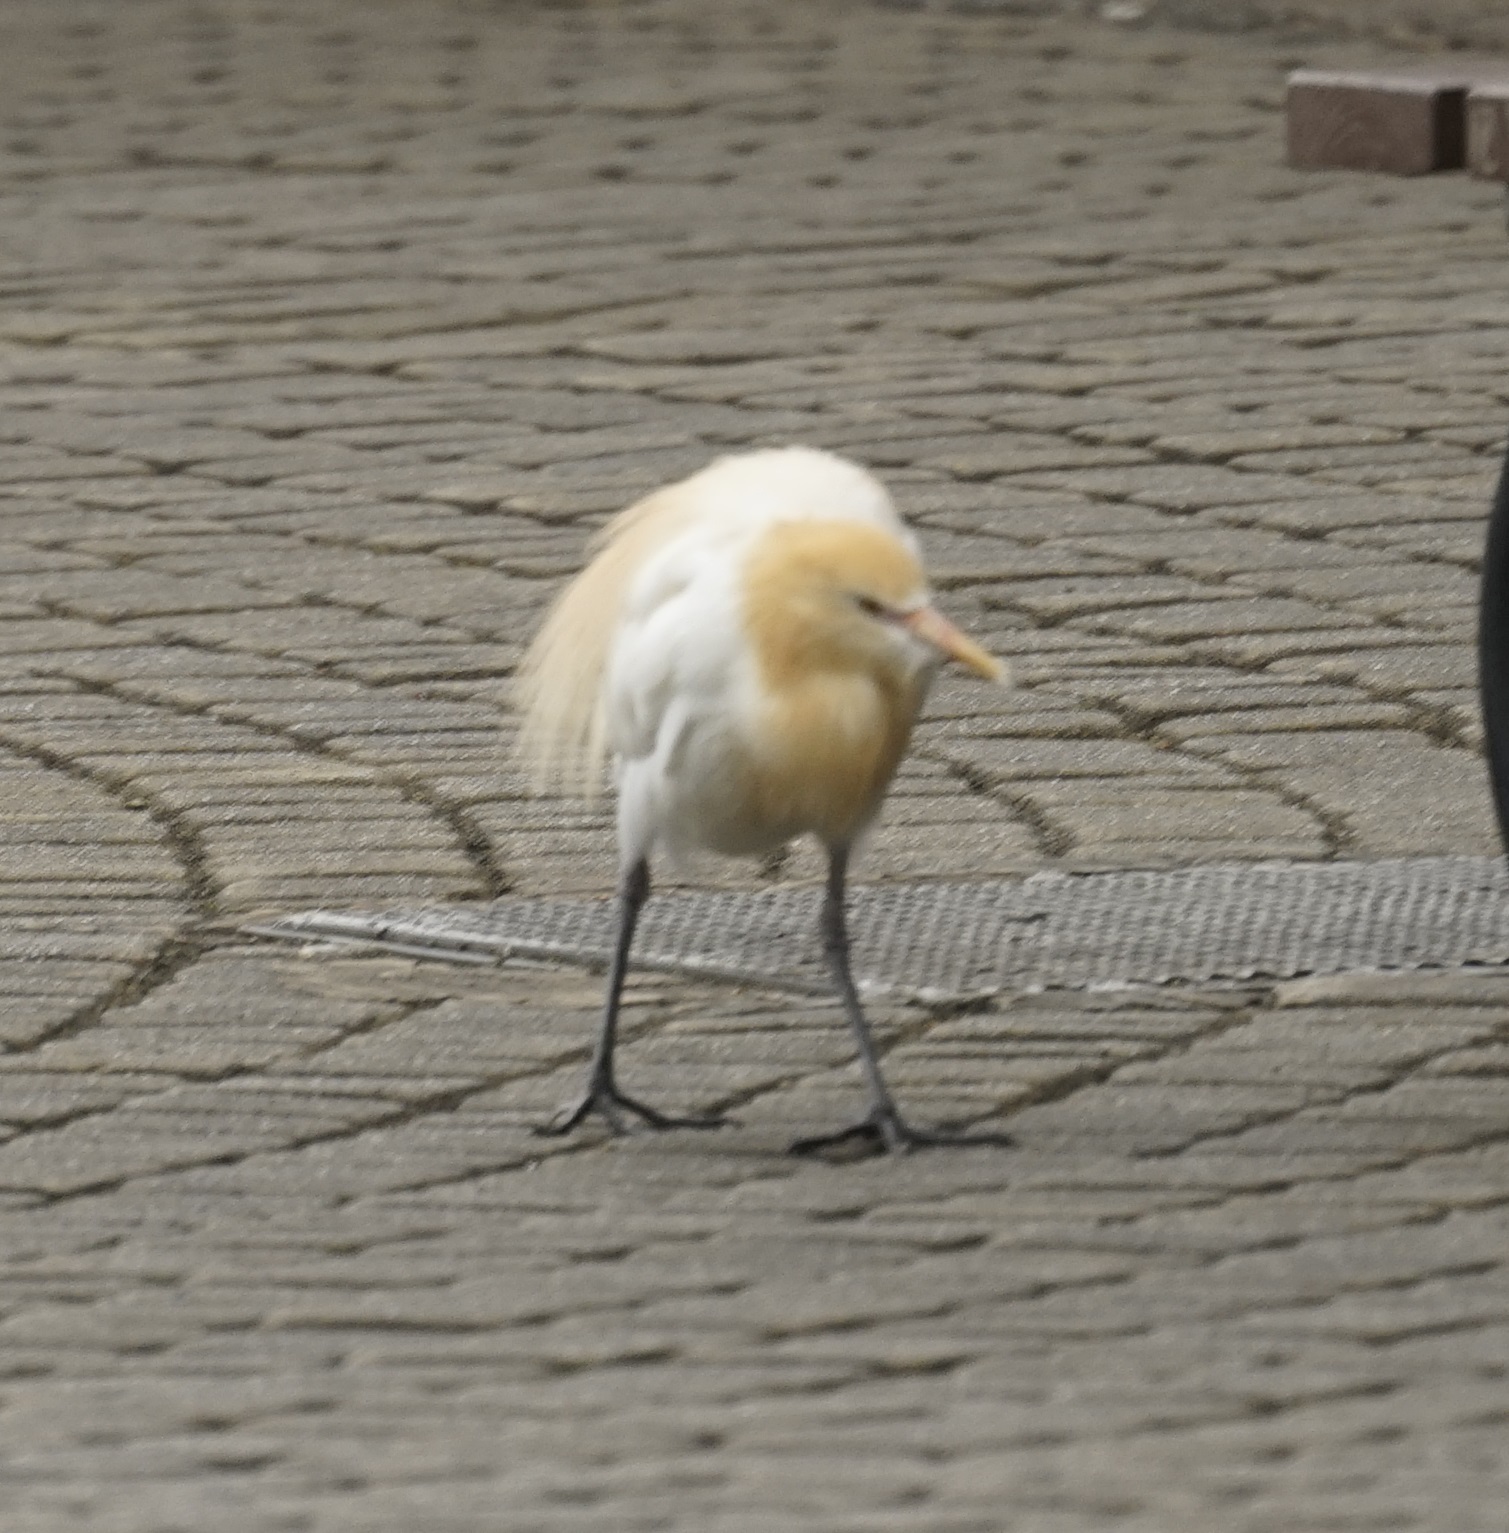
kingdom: Animalia
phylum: Chordata
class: Aves
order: Pelecaniformes
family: Ardeidae
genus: Bubulcus
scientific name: Bubulcus coromandus
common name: Eastern cattle egret
